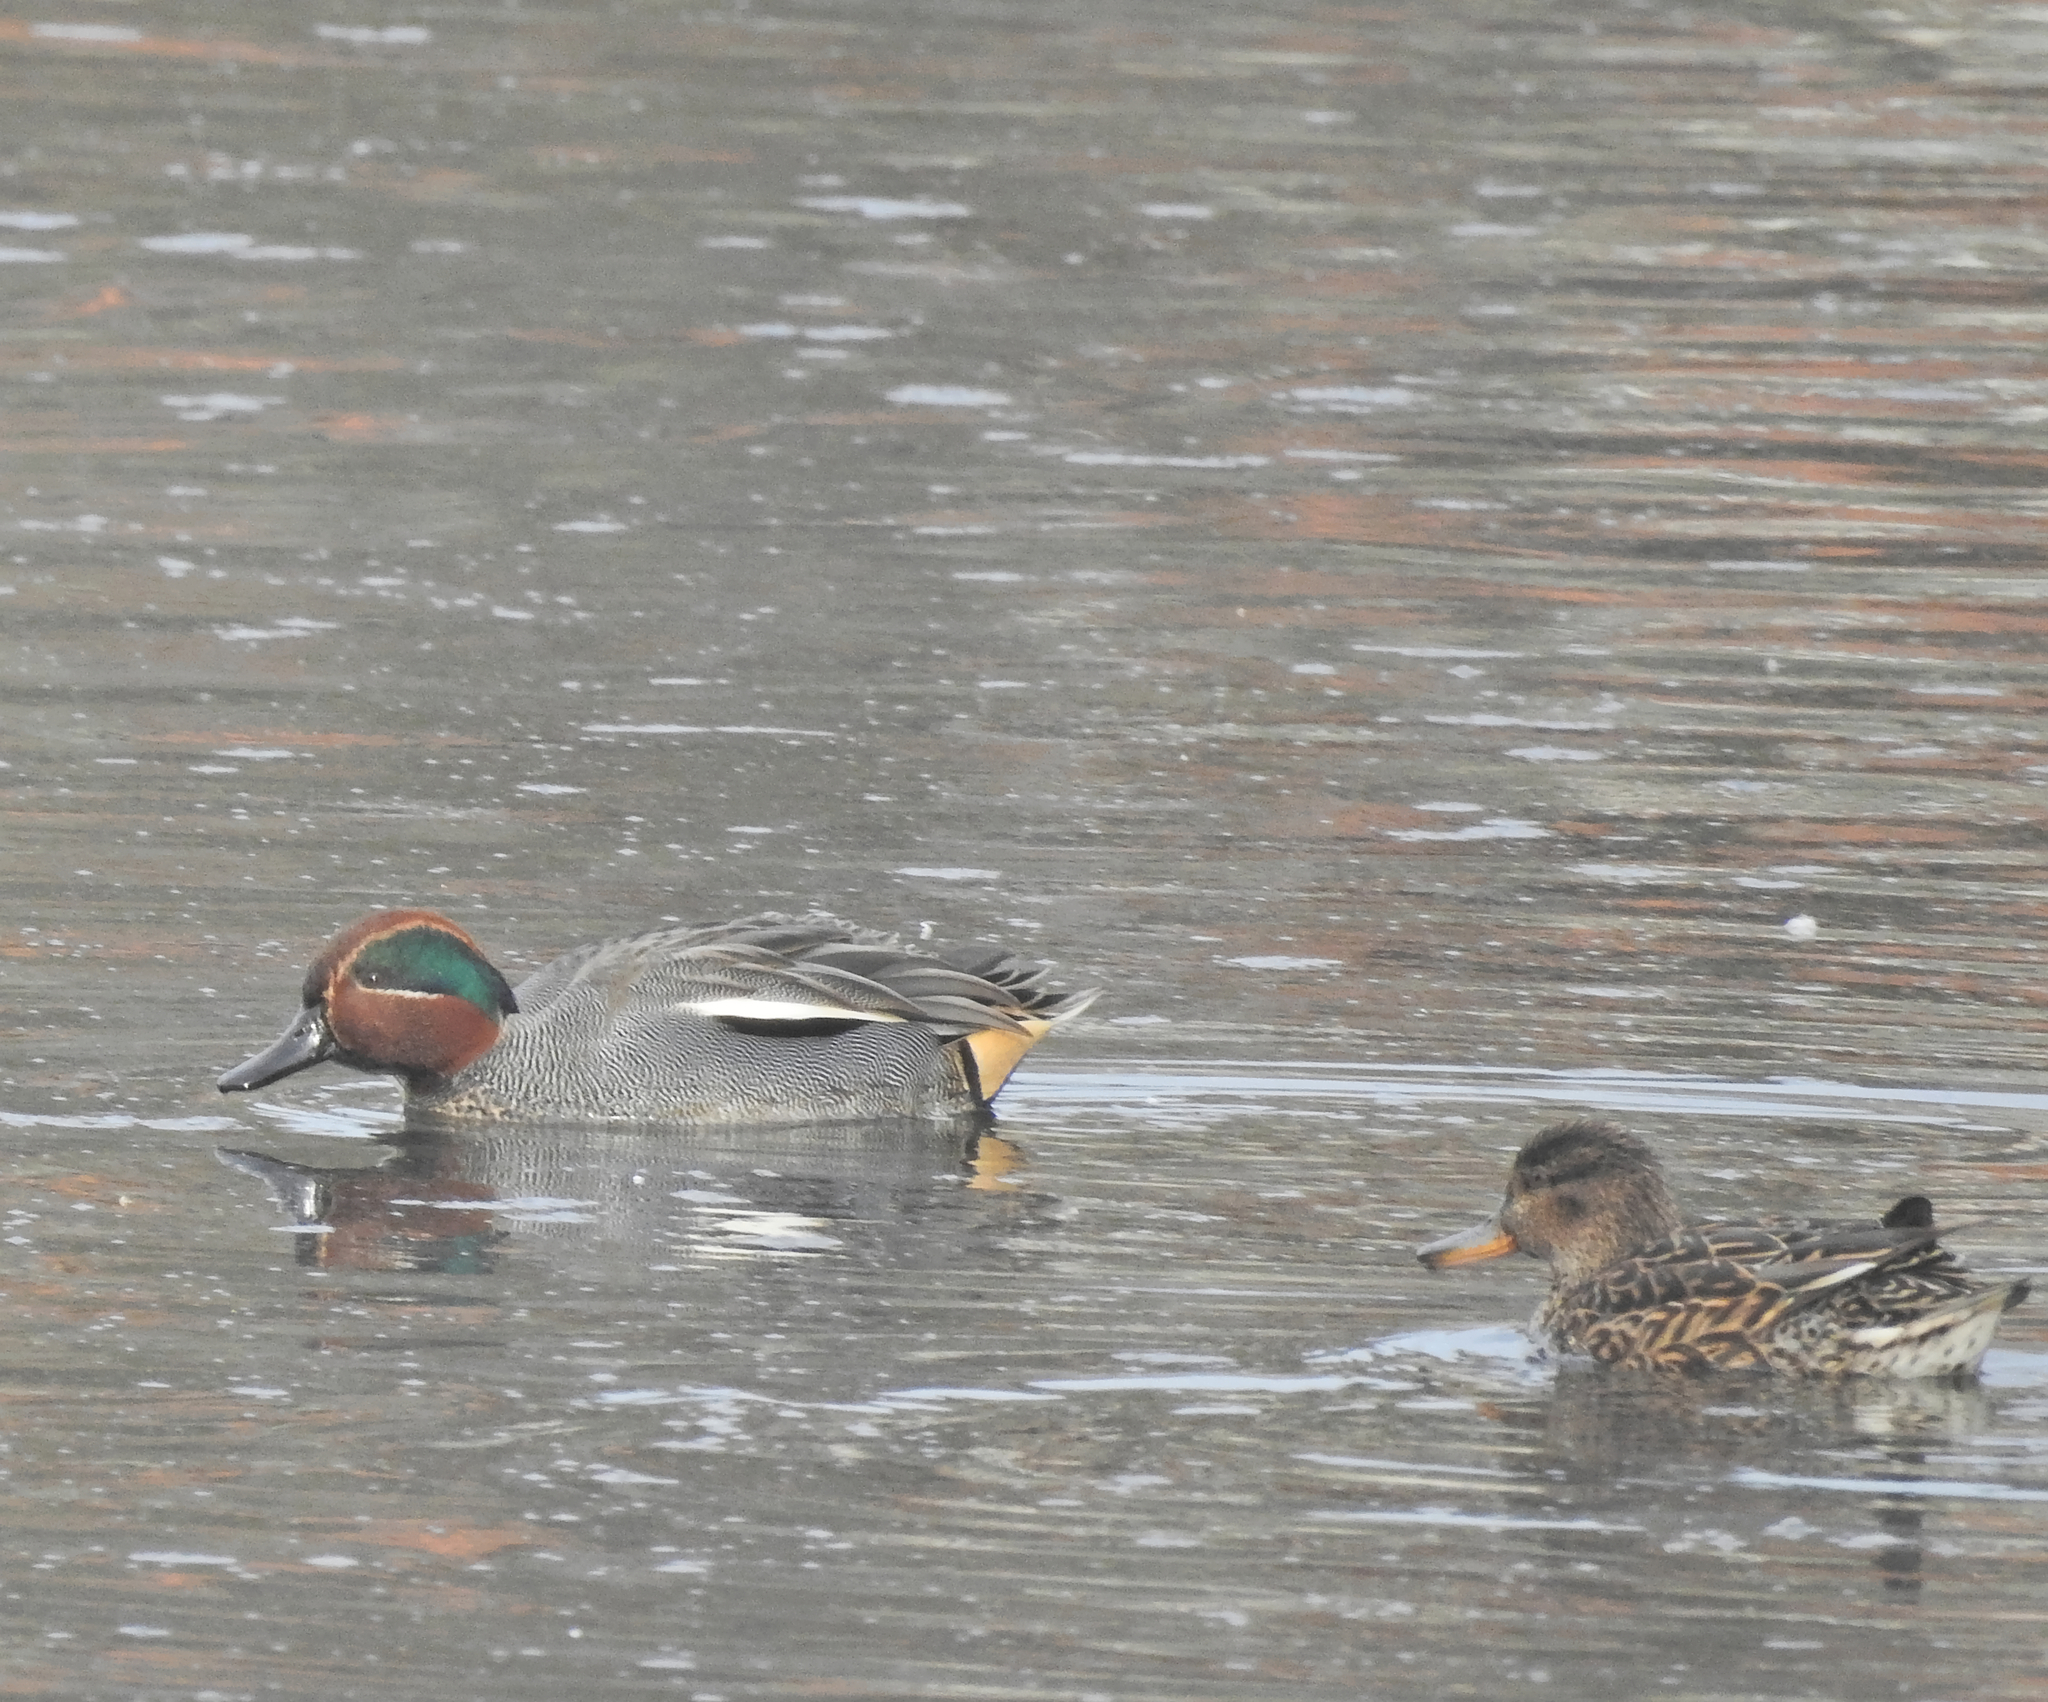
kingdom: Animalia
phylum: Chordata
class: Aves
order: Anseriformes
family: Anatidae
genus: Anas
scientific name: Anas crecca
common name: Eurasian teal
